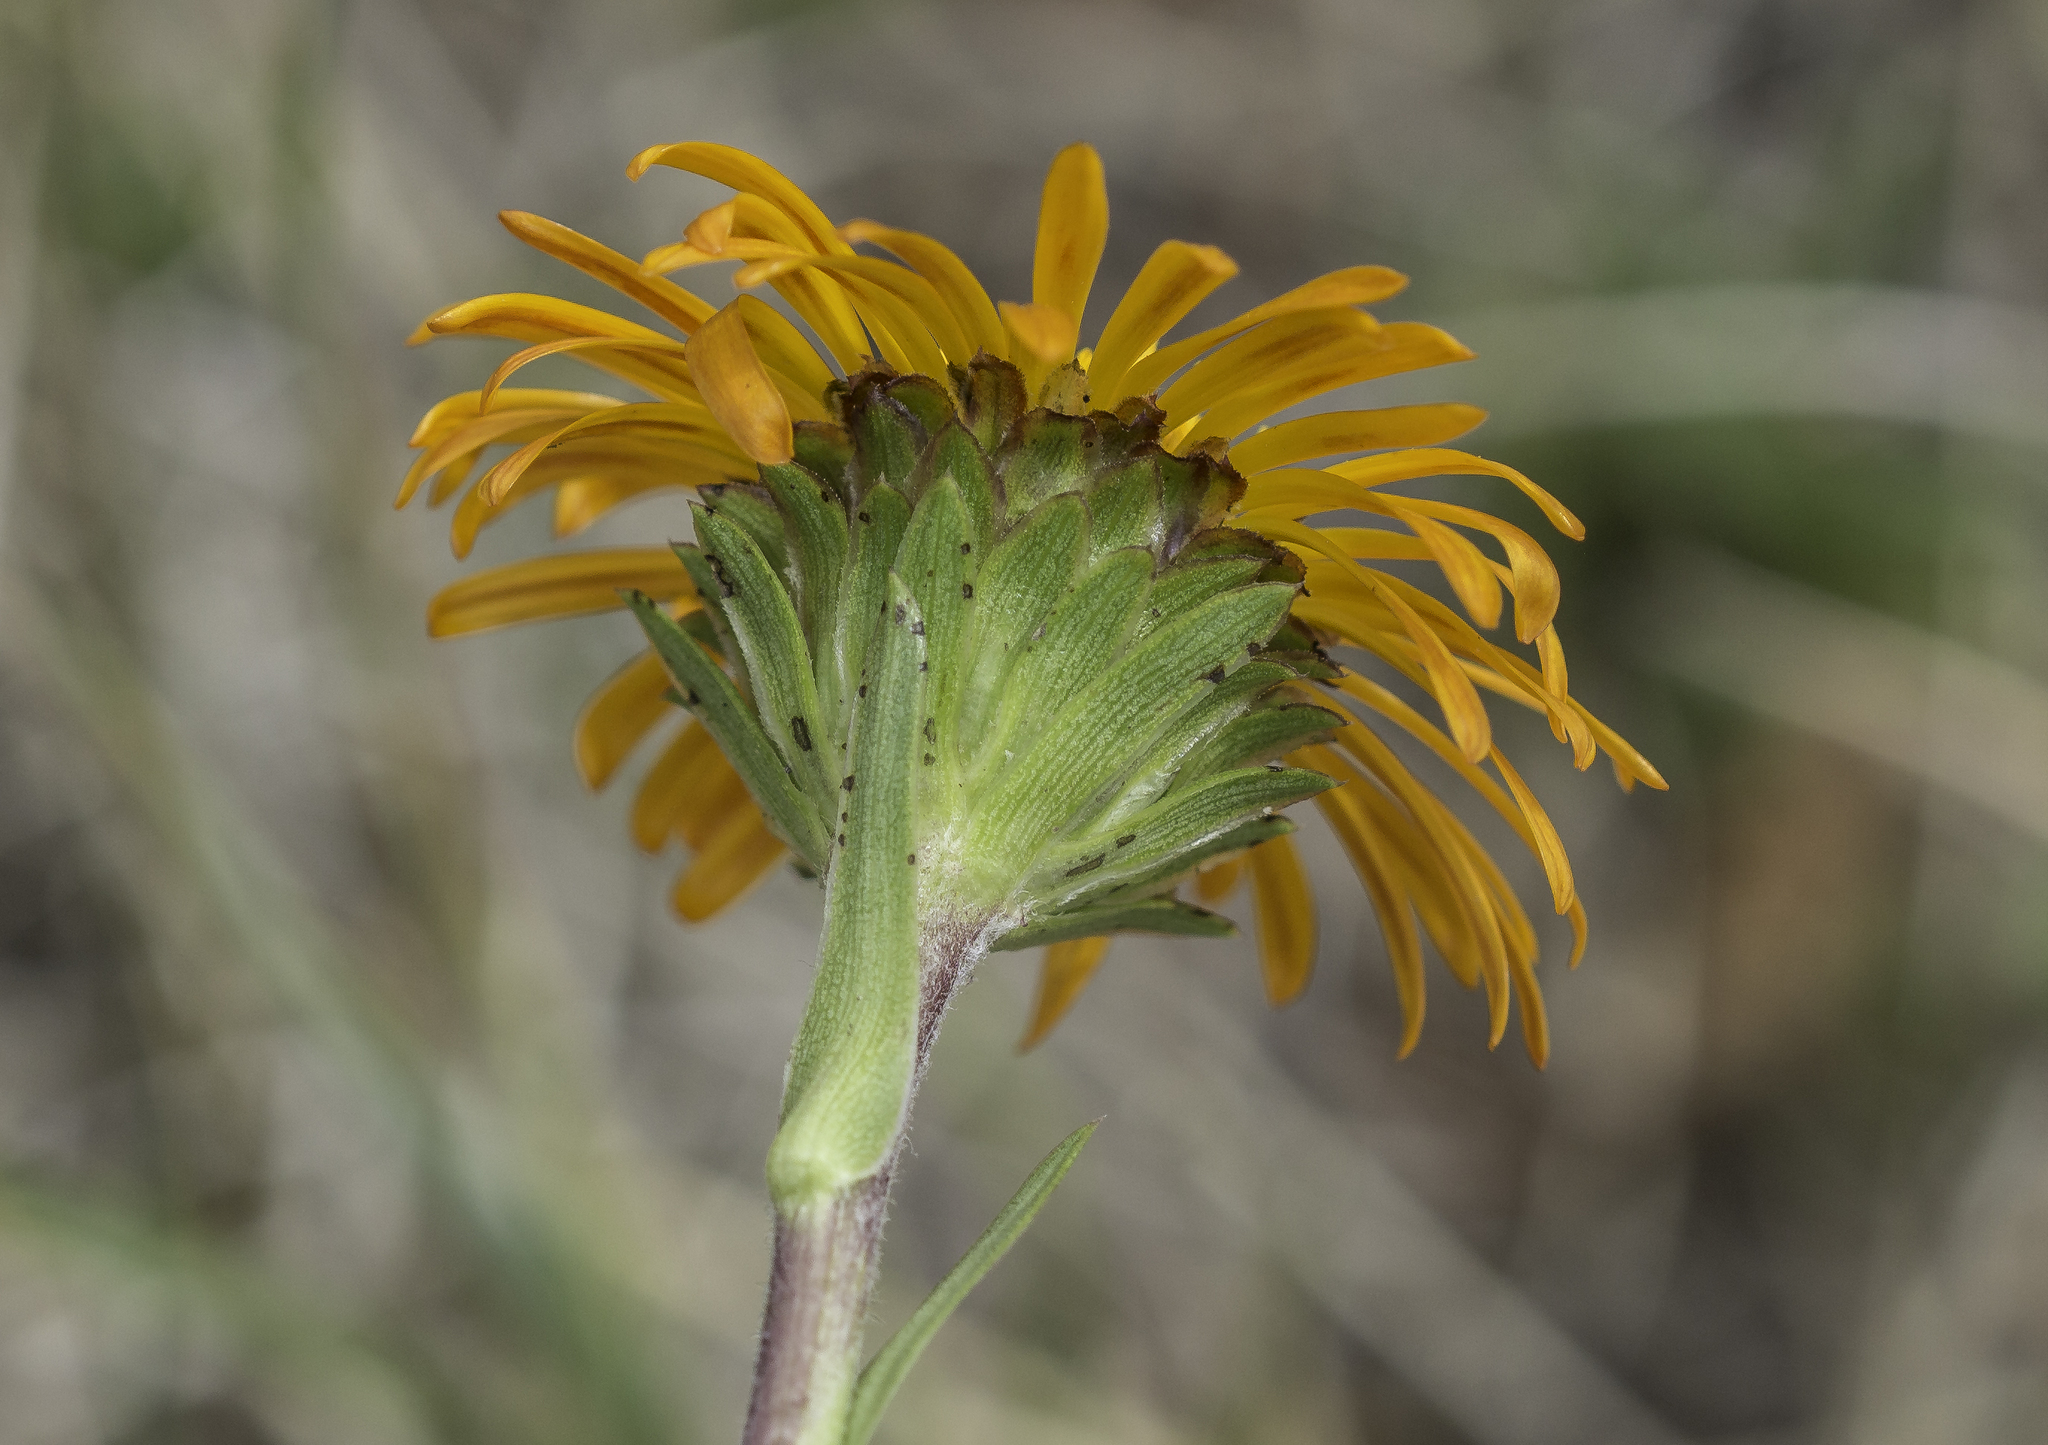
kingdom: Plantae
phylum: Tracheophyta
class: Magnoliopsida
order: Asterales
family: Asteraceae
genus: Pyrrocoma
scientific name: Pyrrocoma crocea
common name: Curly-head goldenweed
